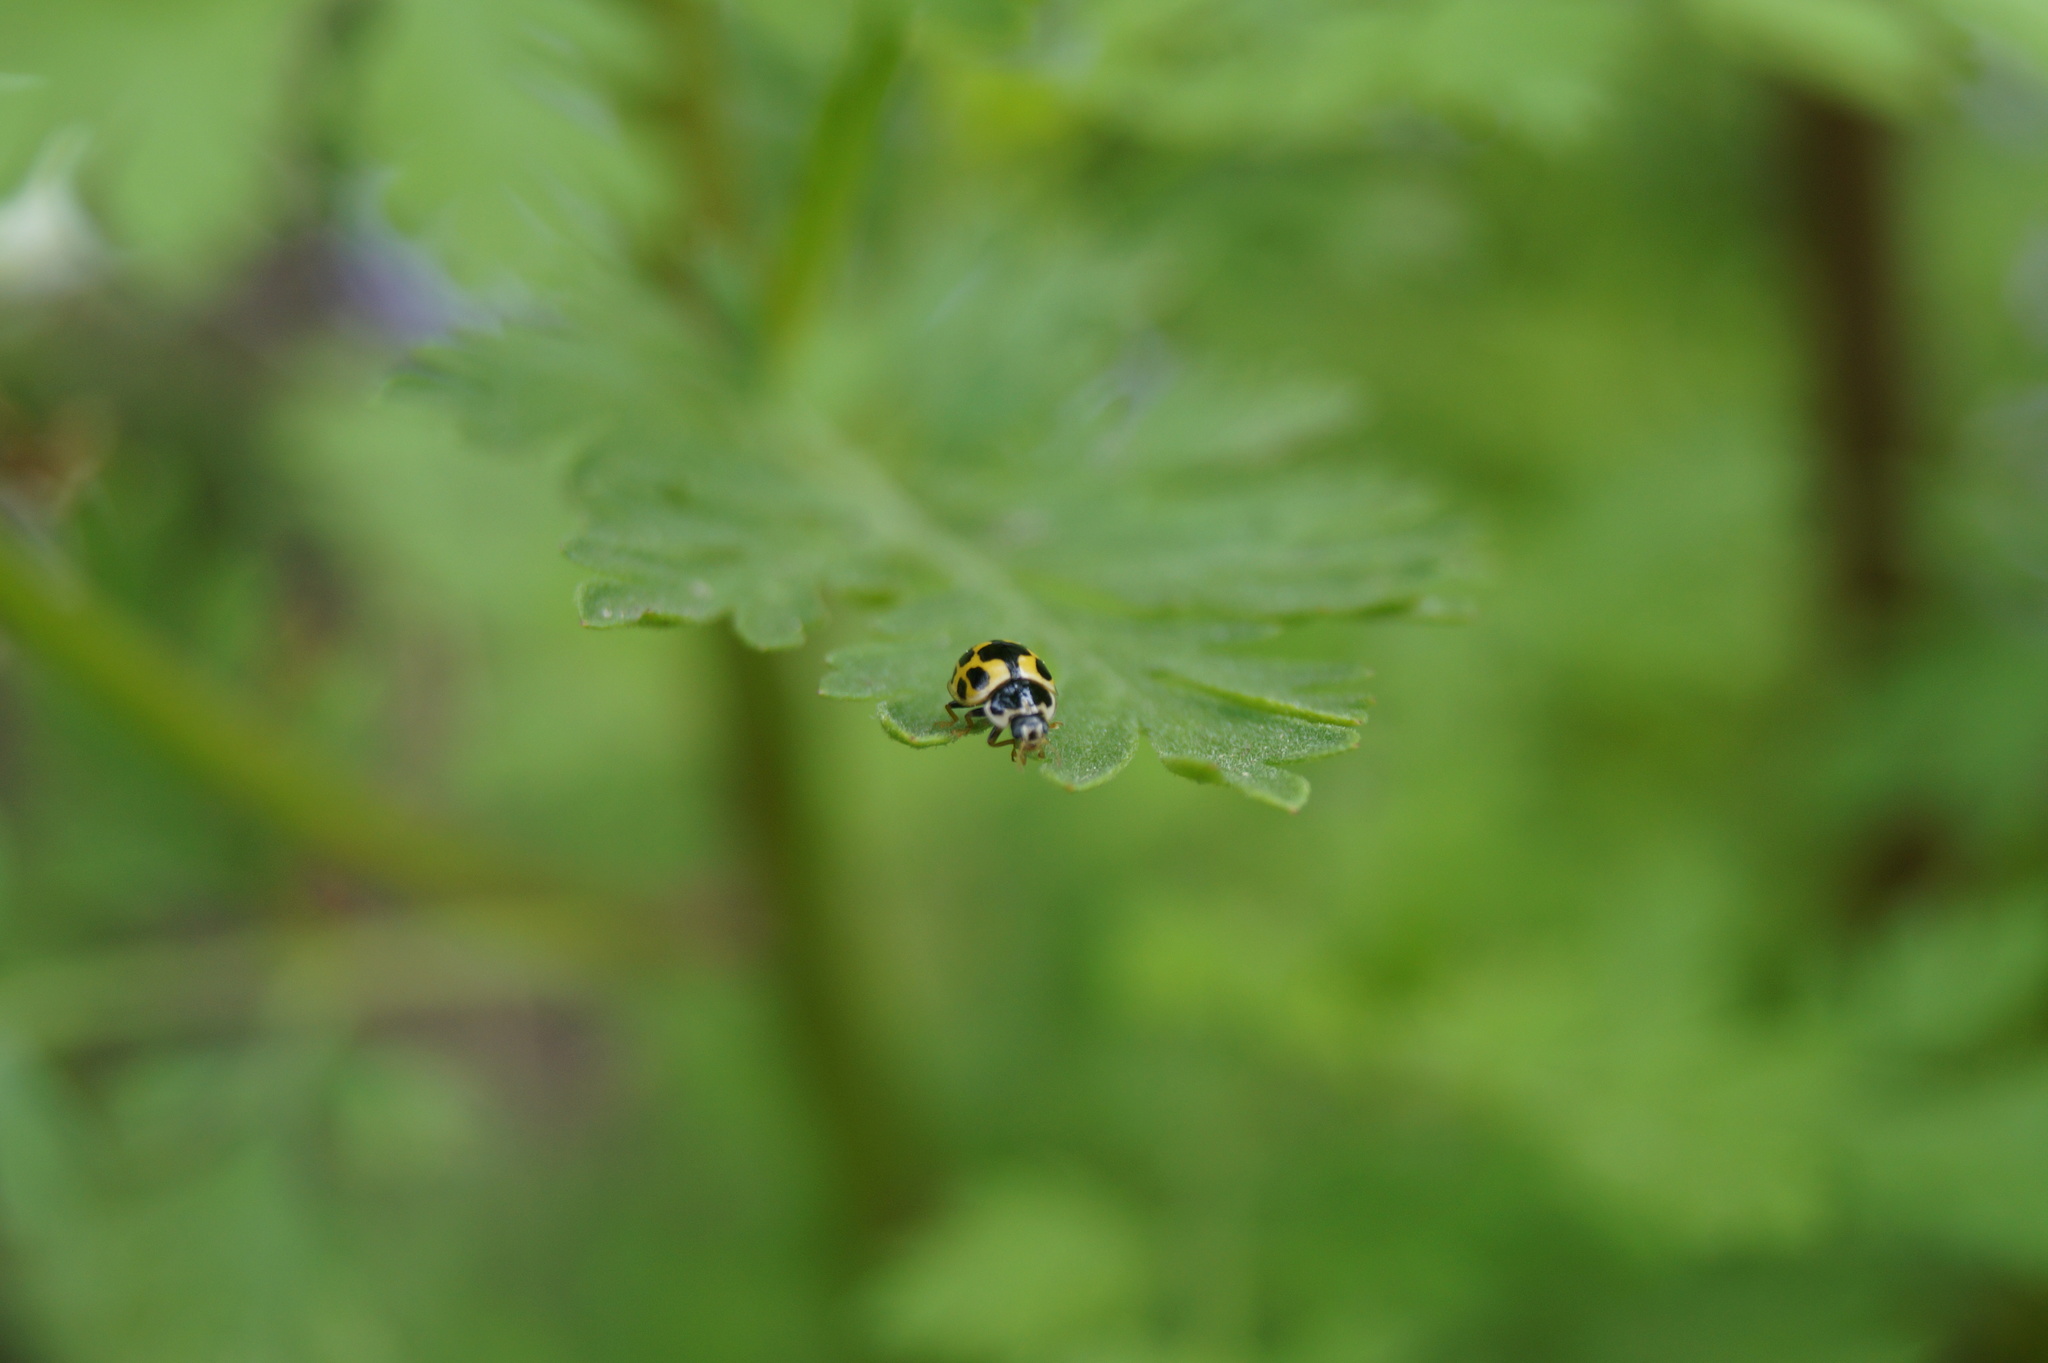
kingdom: Animalia
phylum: Arthropoda
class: Insecta
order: Coleoptera
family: Coccinellidae
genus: Propylaea
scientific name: Propylaea quatuordecimpunctata
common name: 14-spotted ladybird beetle
